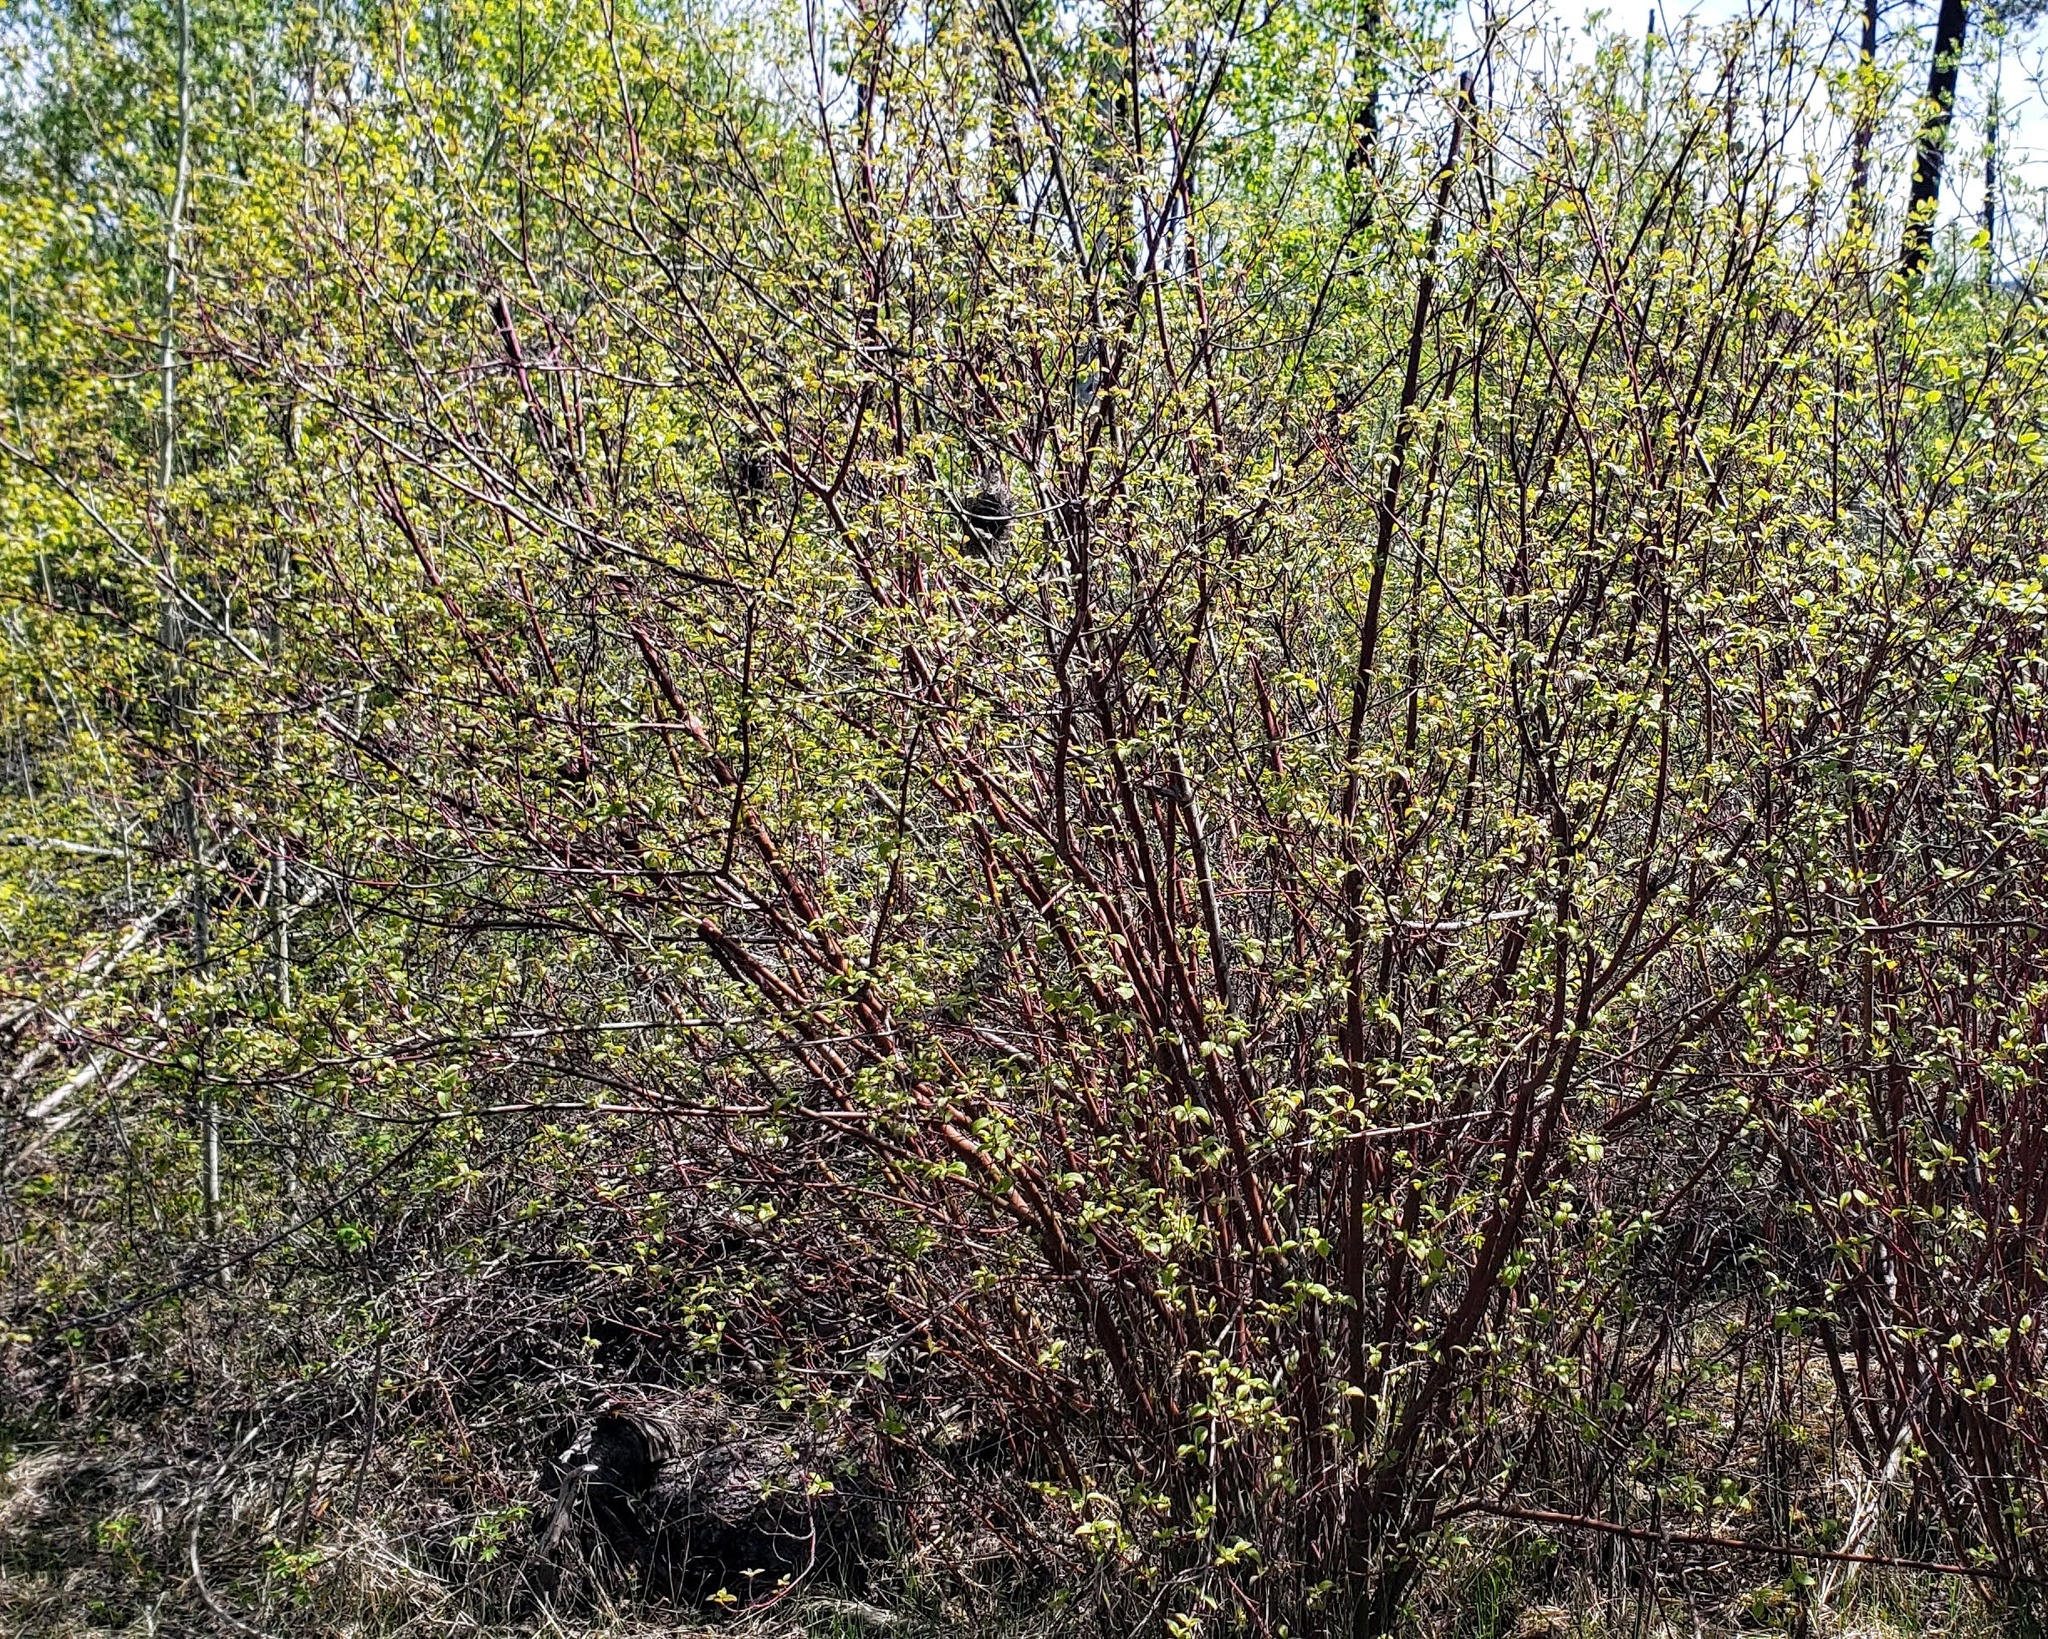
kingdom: Plantae
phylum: Tracheophyta
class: Magnoliopsida
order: Cornales
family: Cornaceae
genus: Cornus
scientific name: Cornus sericea
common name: Red-osier dogwood
